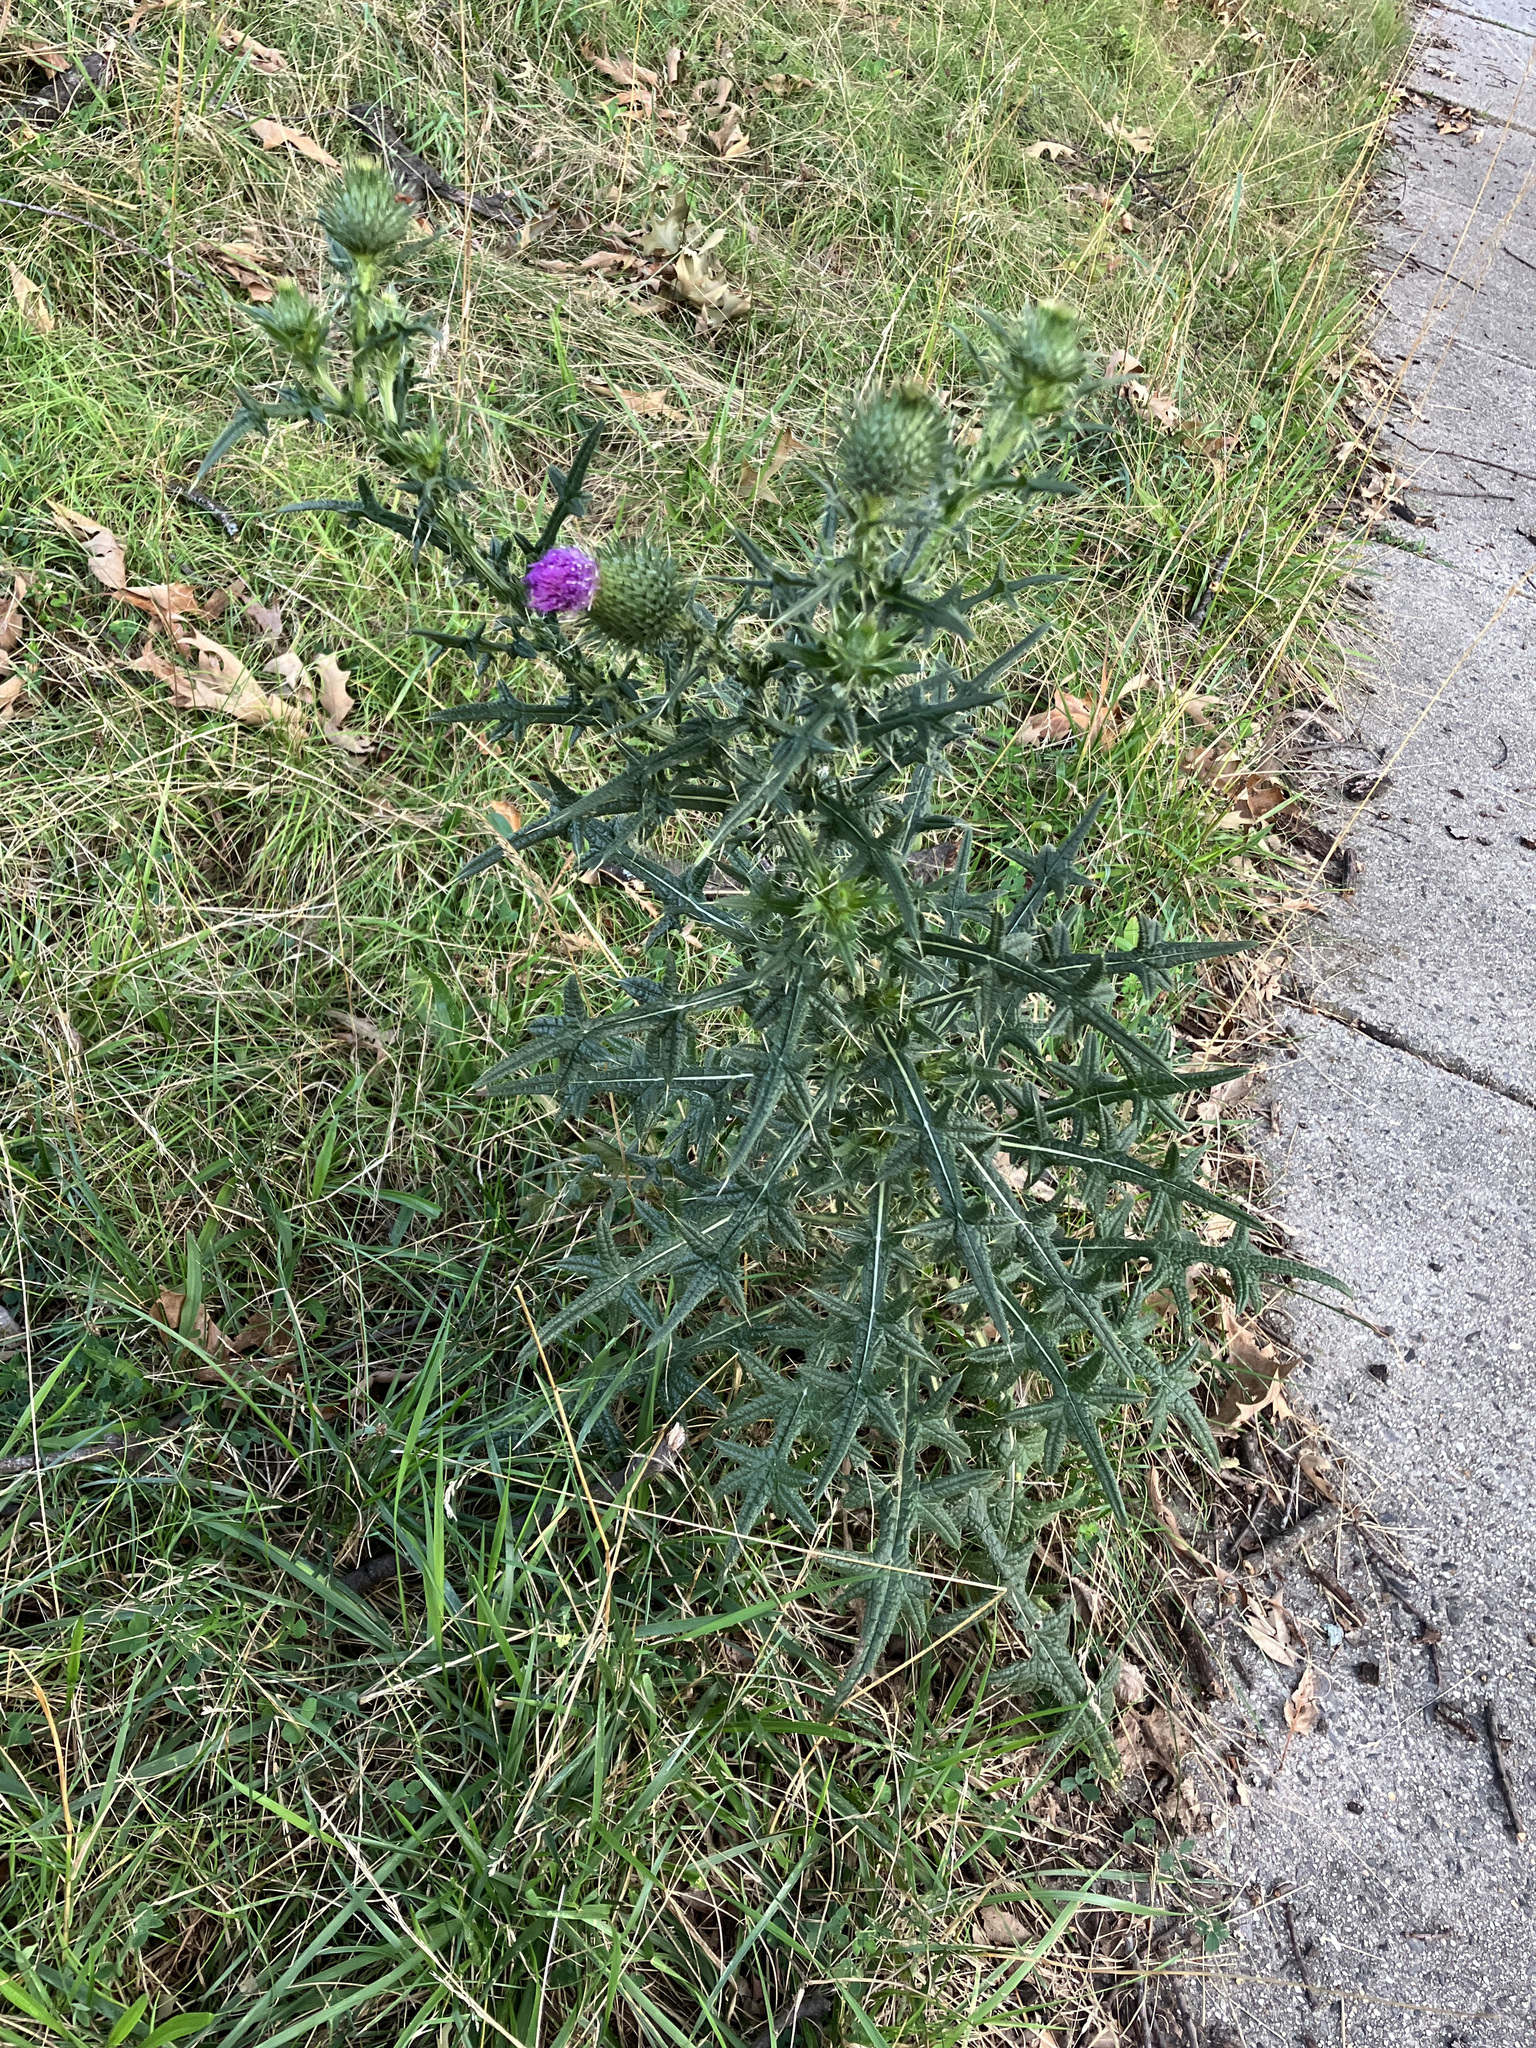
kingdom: Plantae
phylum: Tracheophyta
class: Magnoliopsida
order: Asterales
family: Asteraceae
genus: Cirsium
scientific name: Cirsium vulgare
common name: Bull thistle
